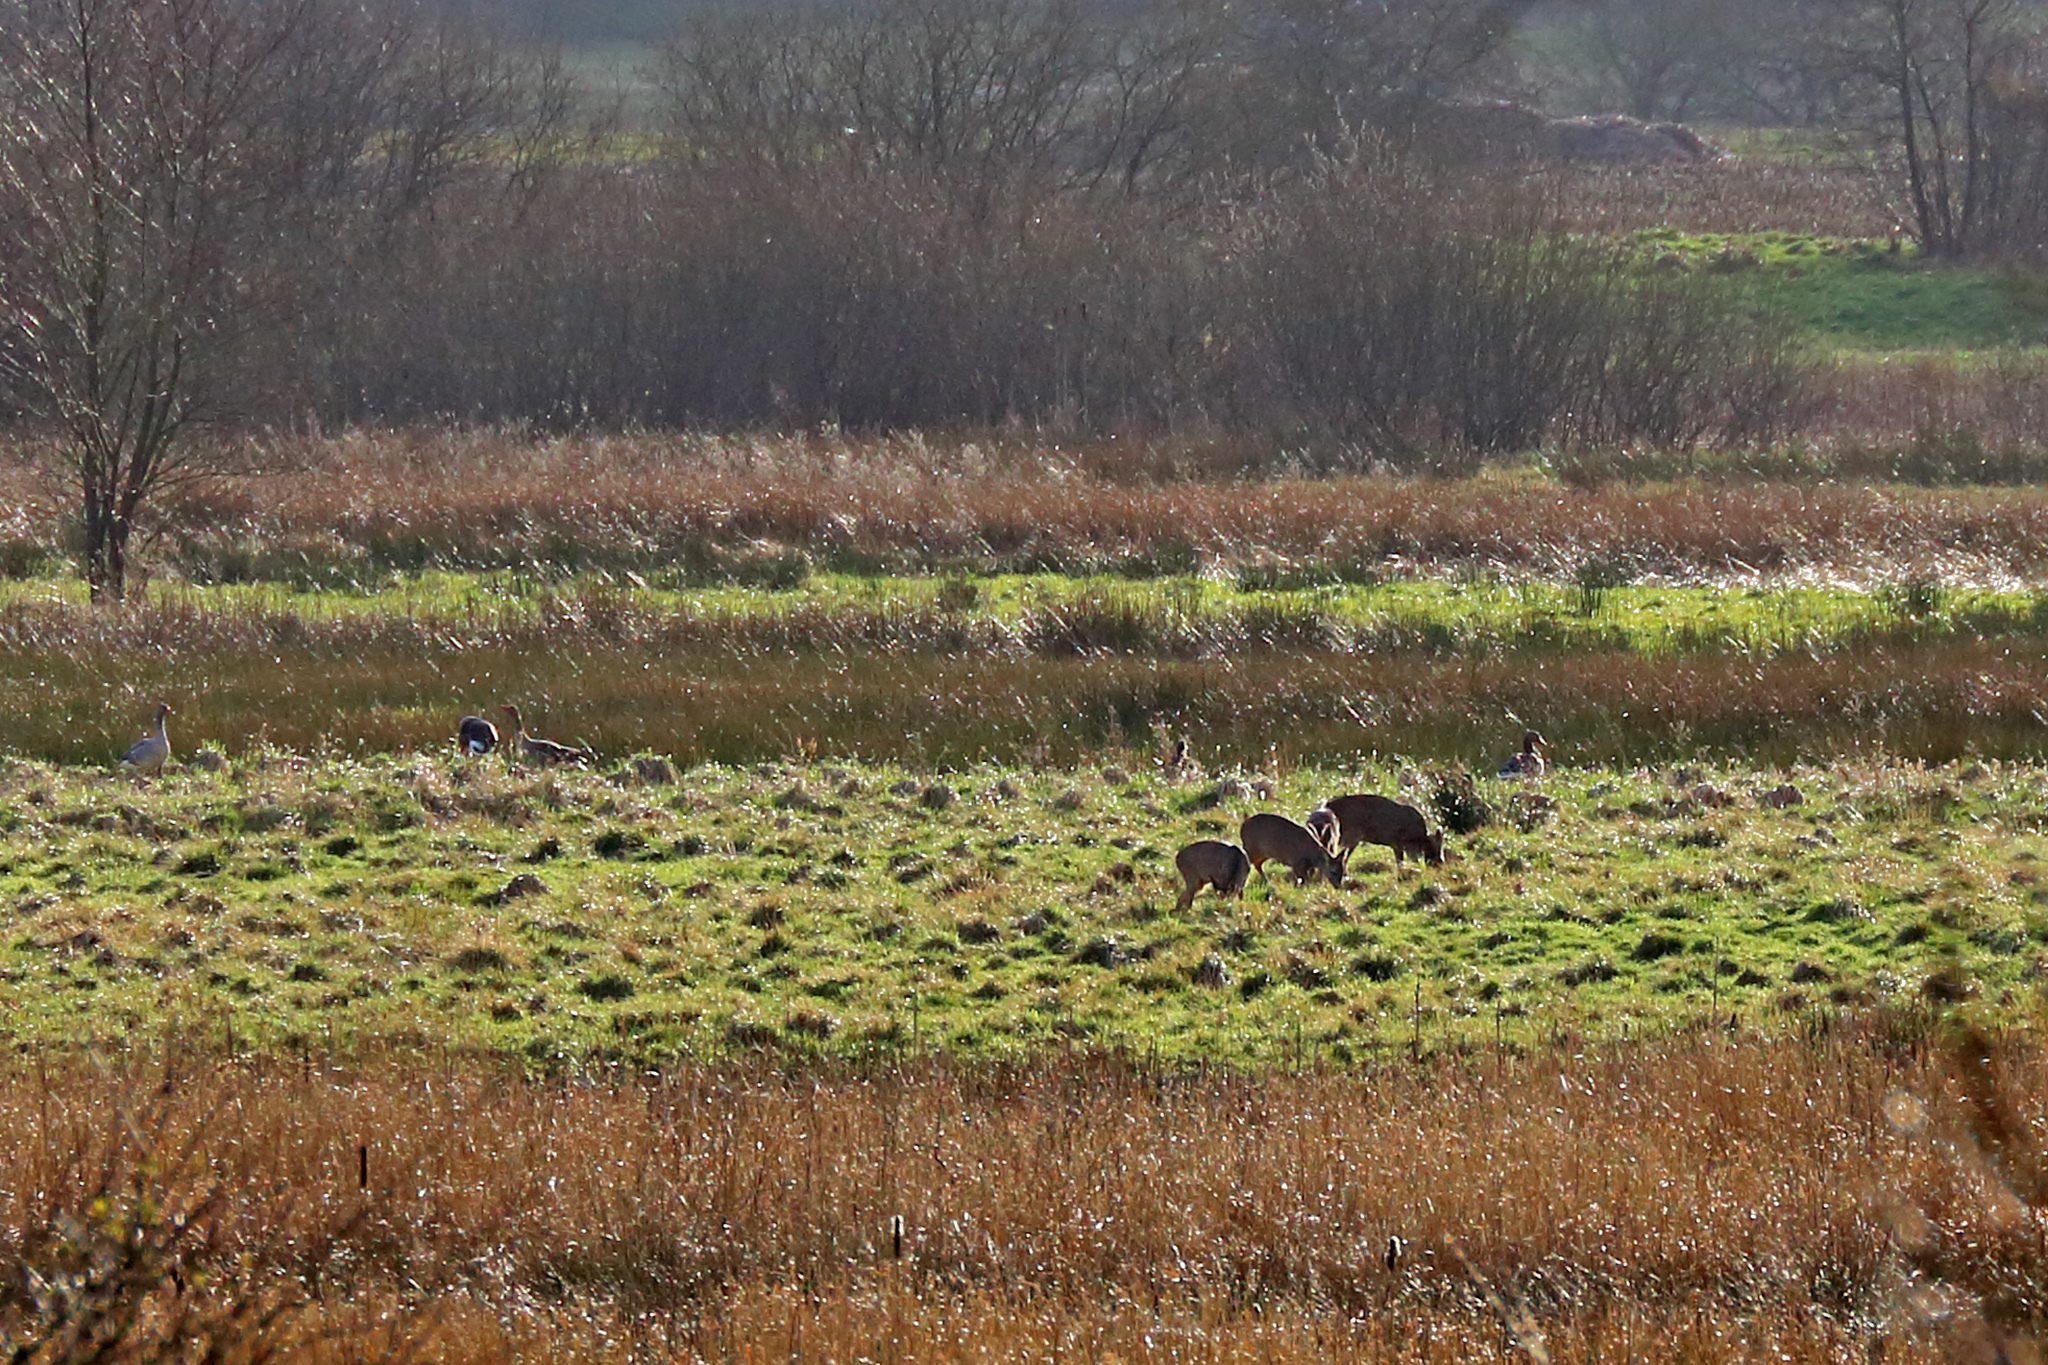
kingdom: Animalia
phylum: Chordata
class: Mammalia
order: Artiodactyla
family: Cervidae
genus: Capreolus
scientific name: Capreolus capreolus
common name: Western roe deer
